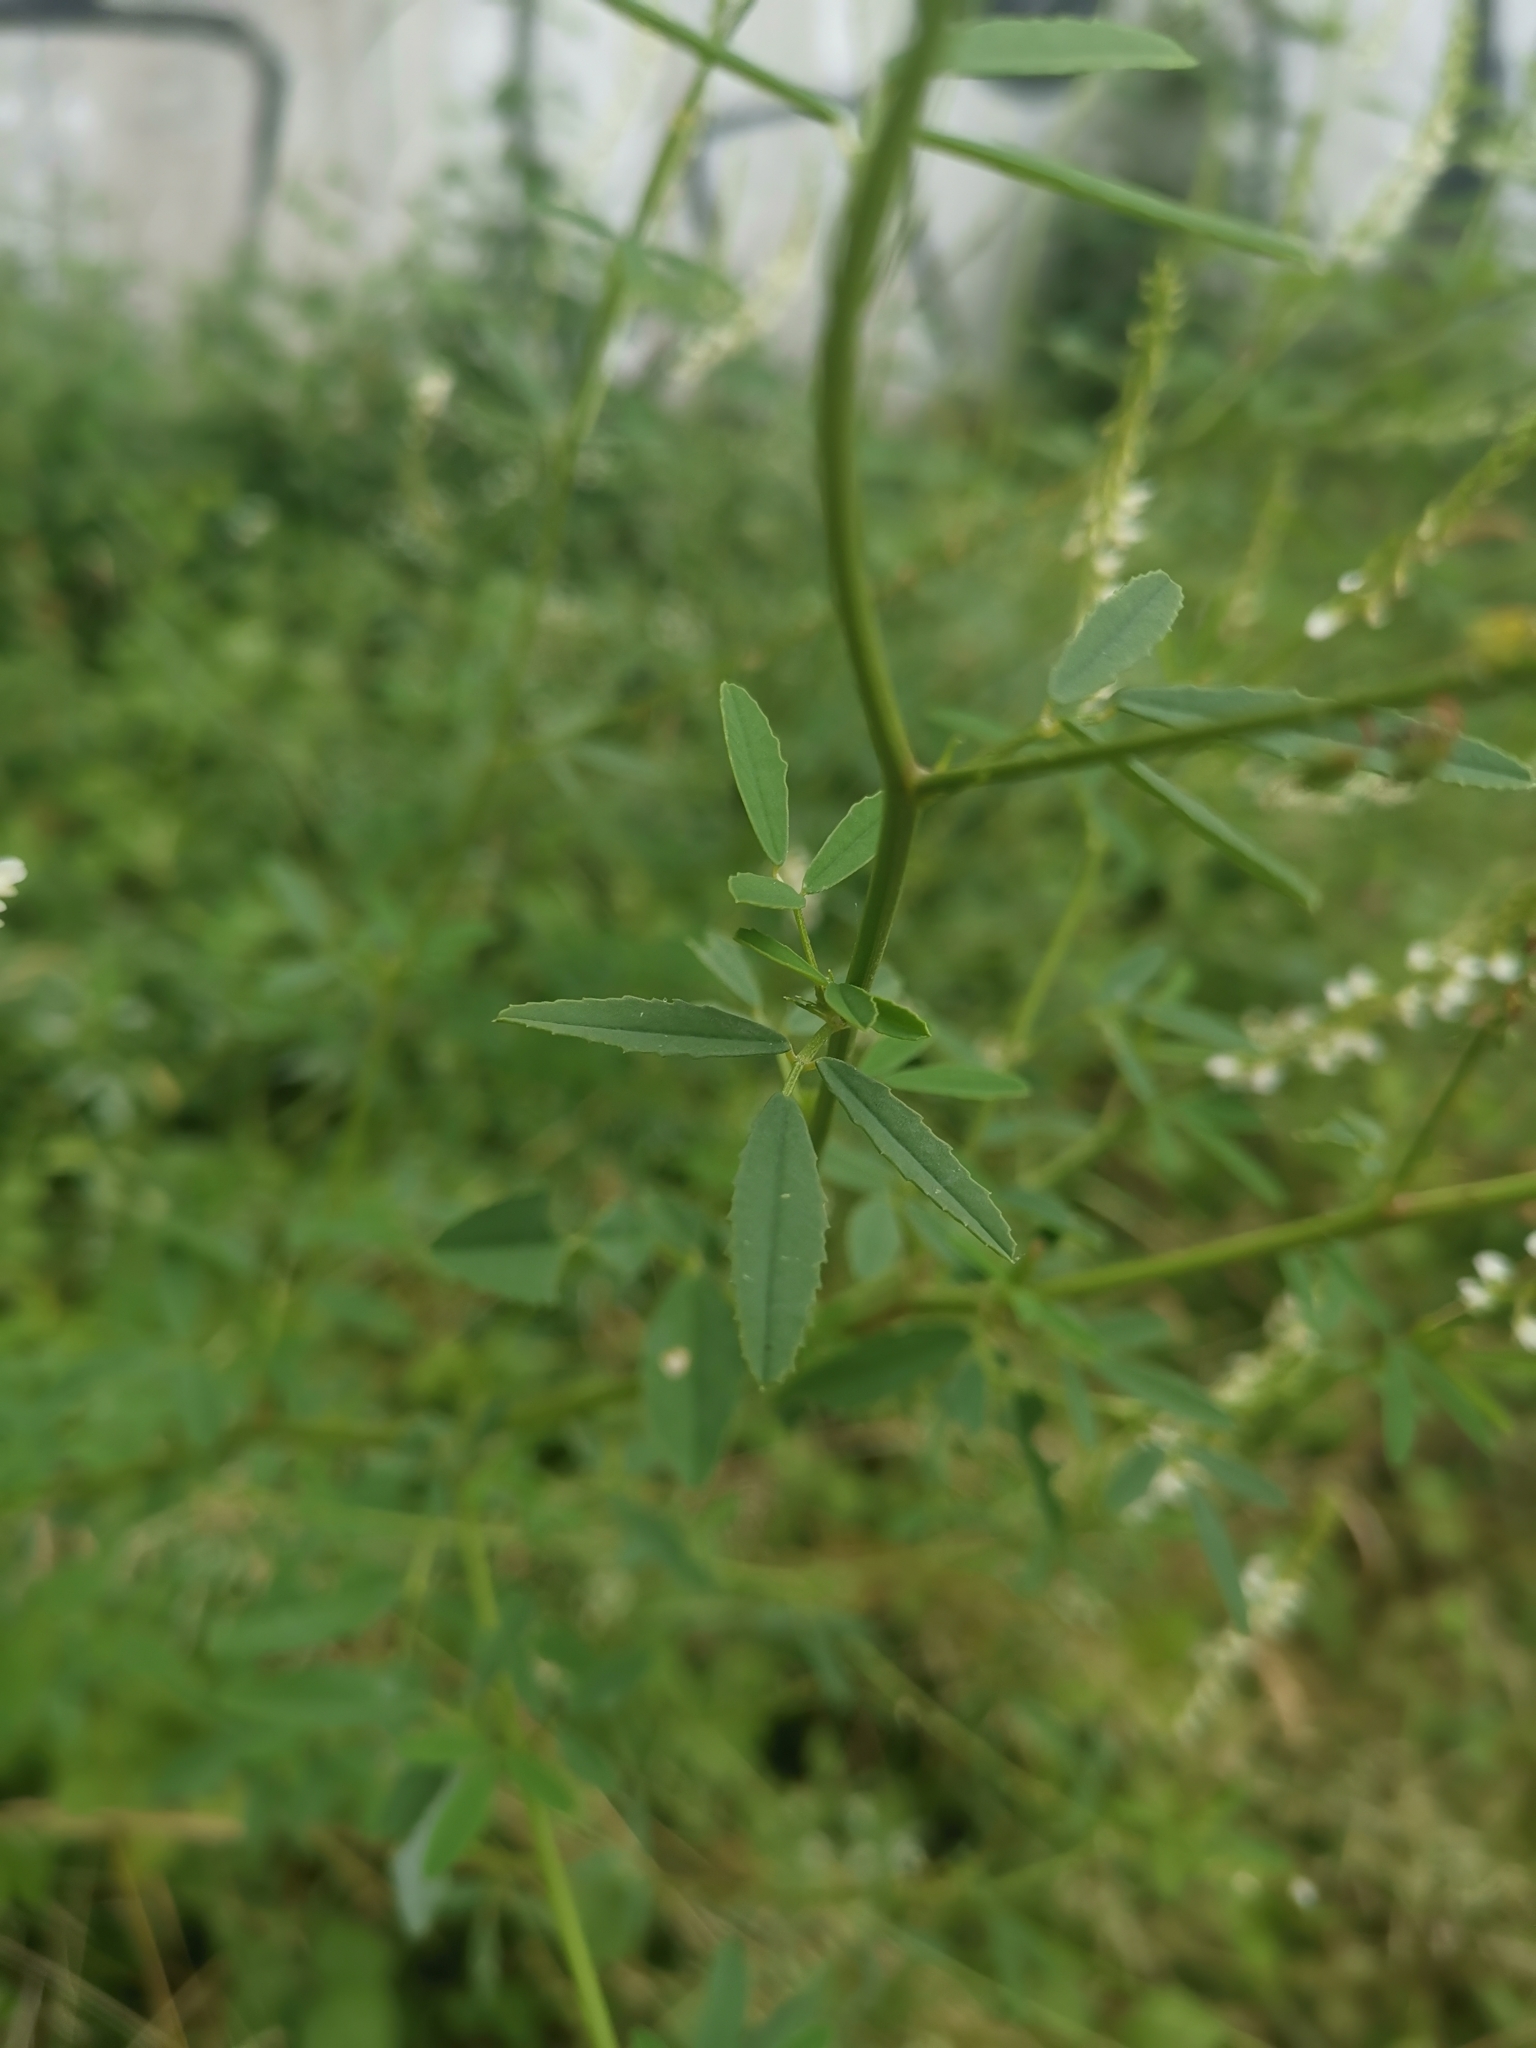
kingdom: Plantae
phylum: Tracheophyta
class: Magnoliopsida
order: Fabales
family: Fabaceae
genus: Melilotus
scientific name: Melilotus albus
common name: White melilot
